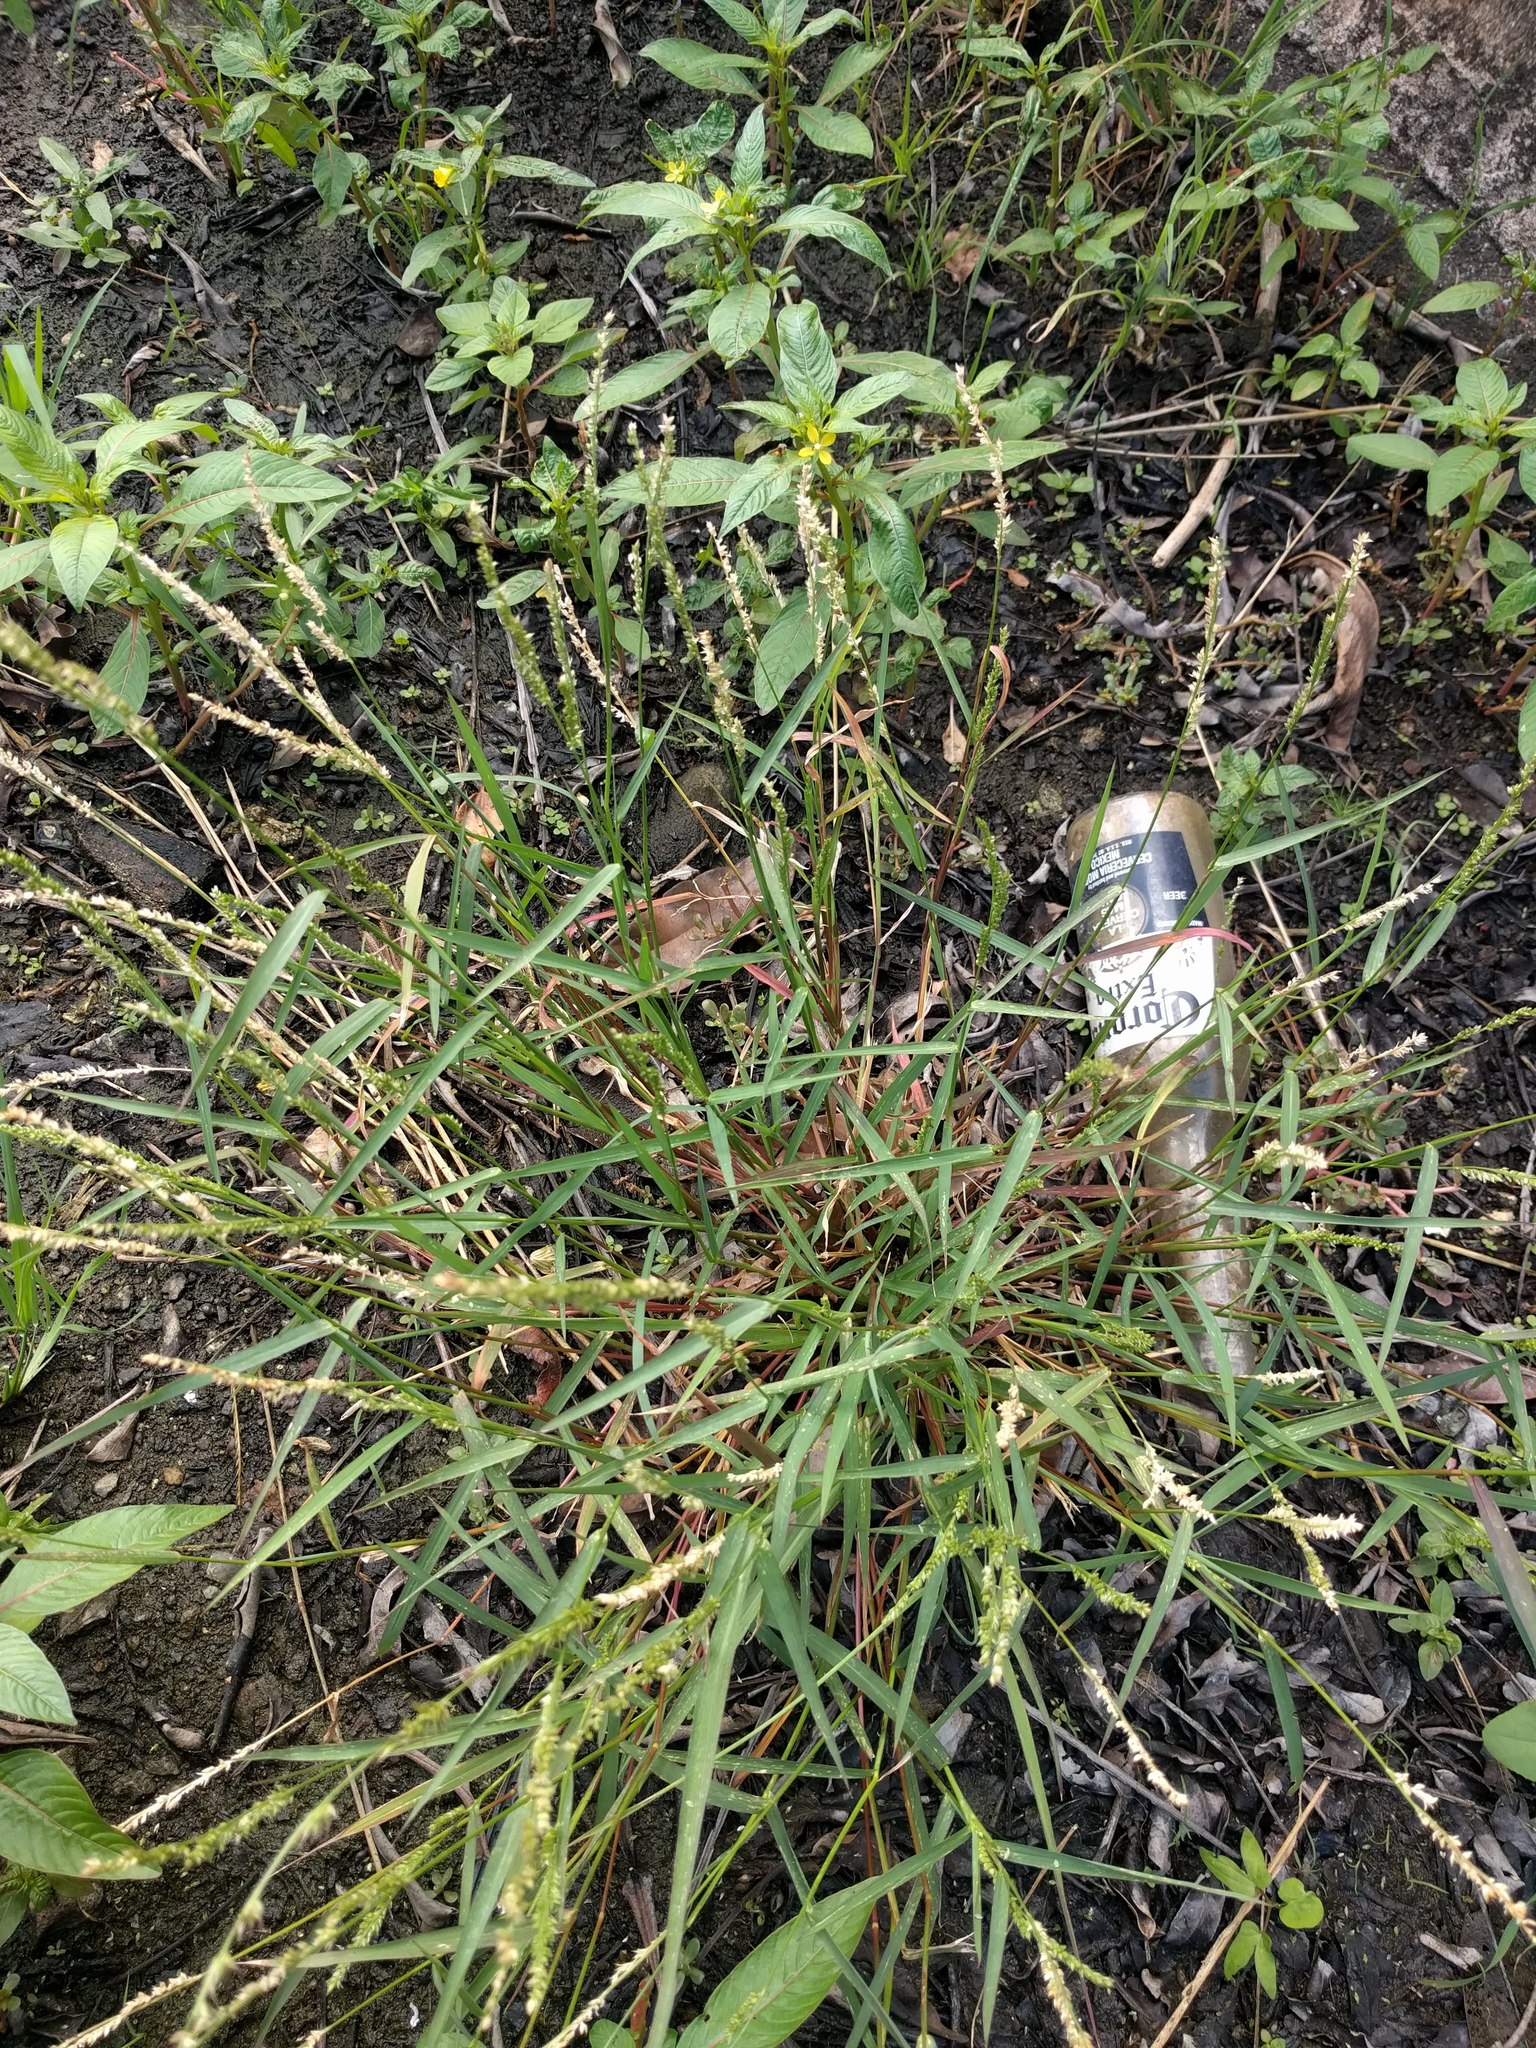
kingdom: Plantae
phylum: Tracheophyta
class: Liliopsida
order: Poales
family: Poaceae
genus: Echinochloa
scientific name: Echinochloa colonum
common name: Jungle rice
